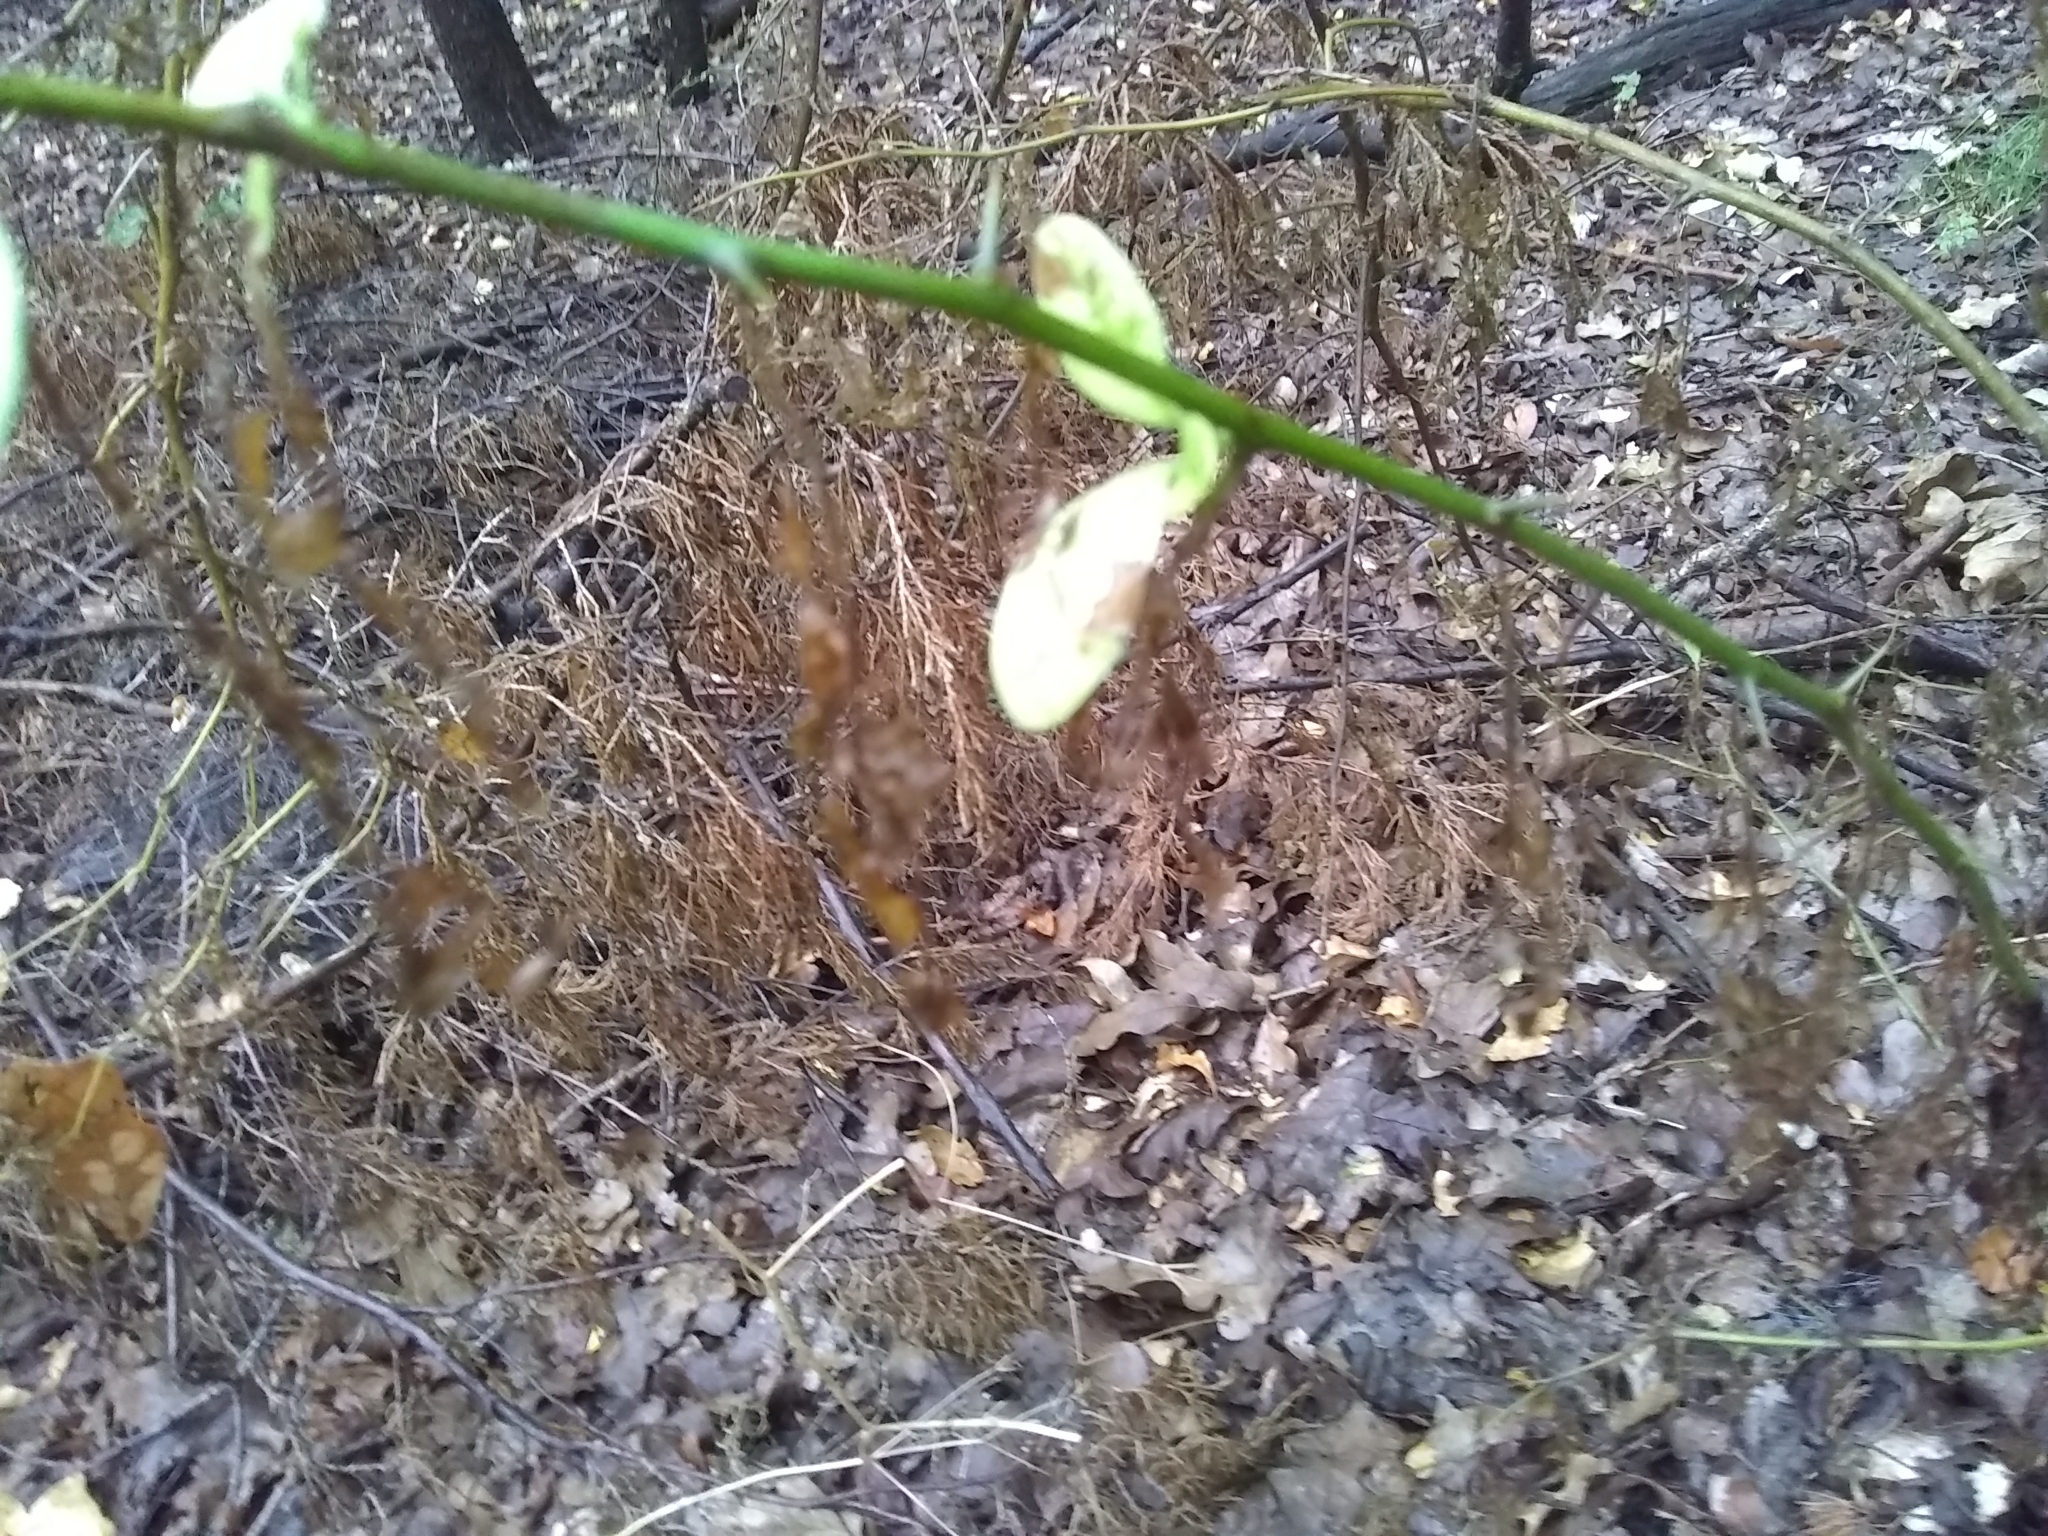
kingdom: Plantae
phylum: Tracheophyta
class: Magnoliopsida
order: Ericales
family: Sapotaceae
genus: Sideroxylon
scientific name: Sideroxylon lanuginosum
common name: Chittamwood
